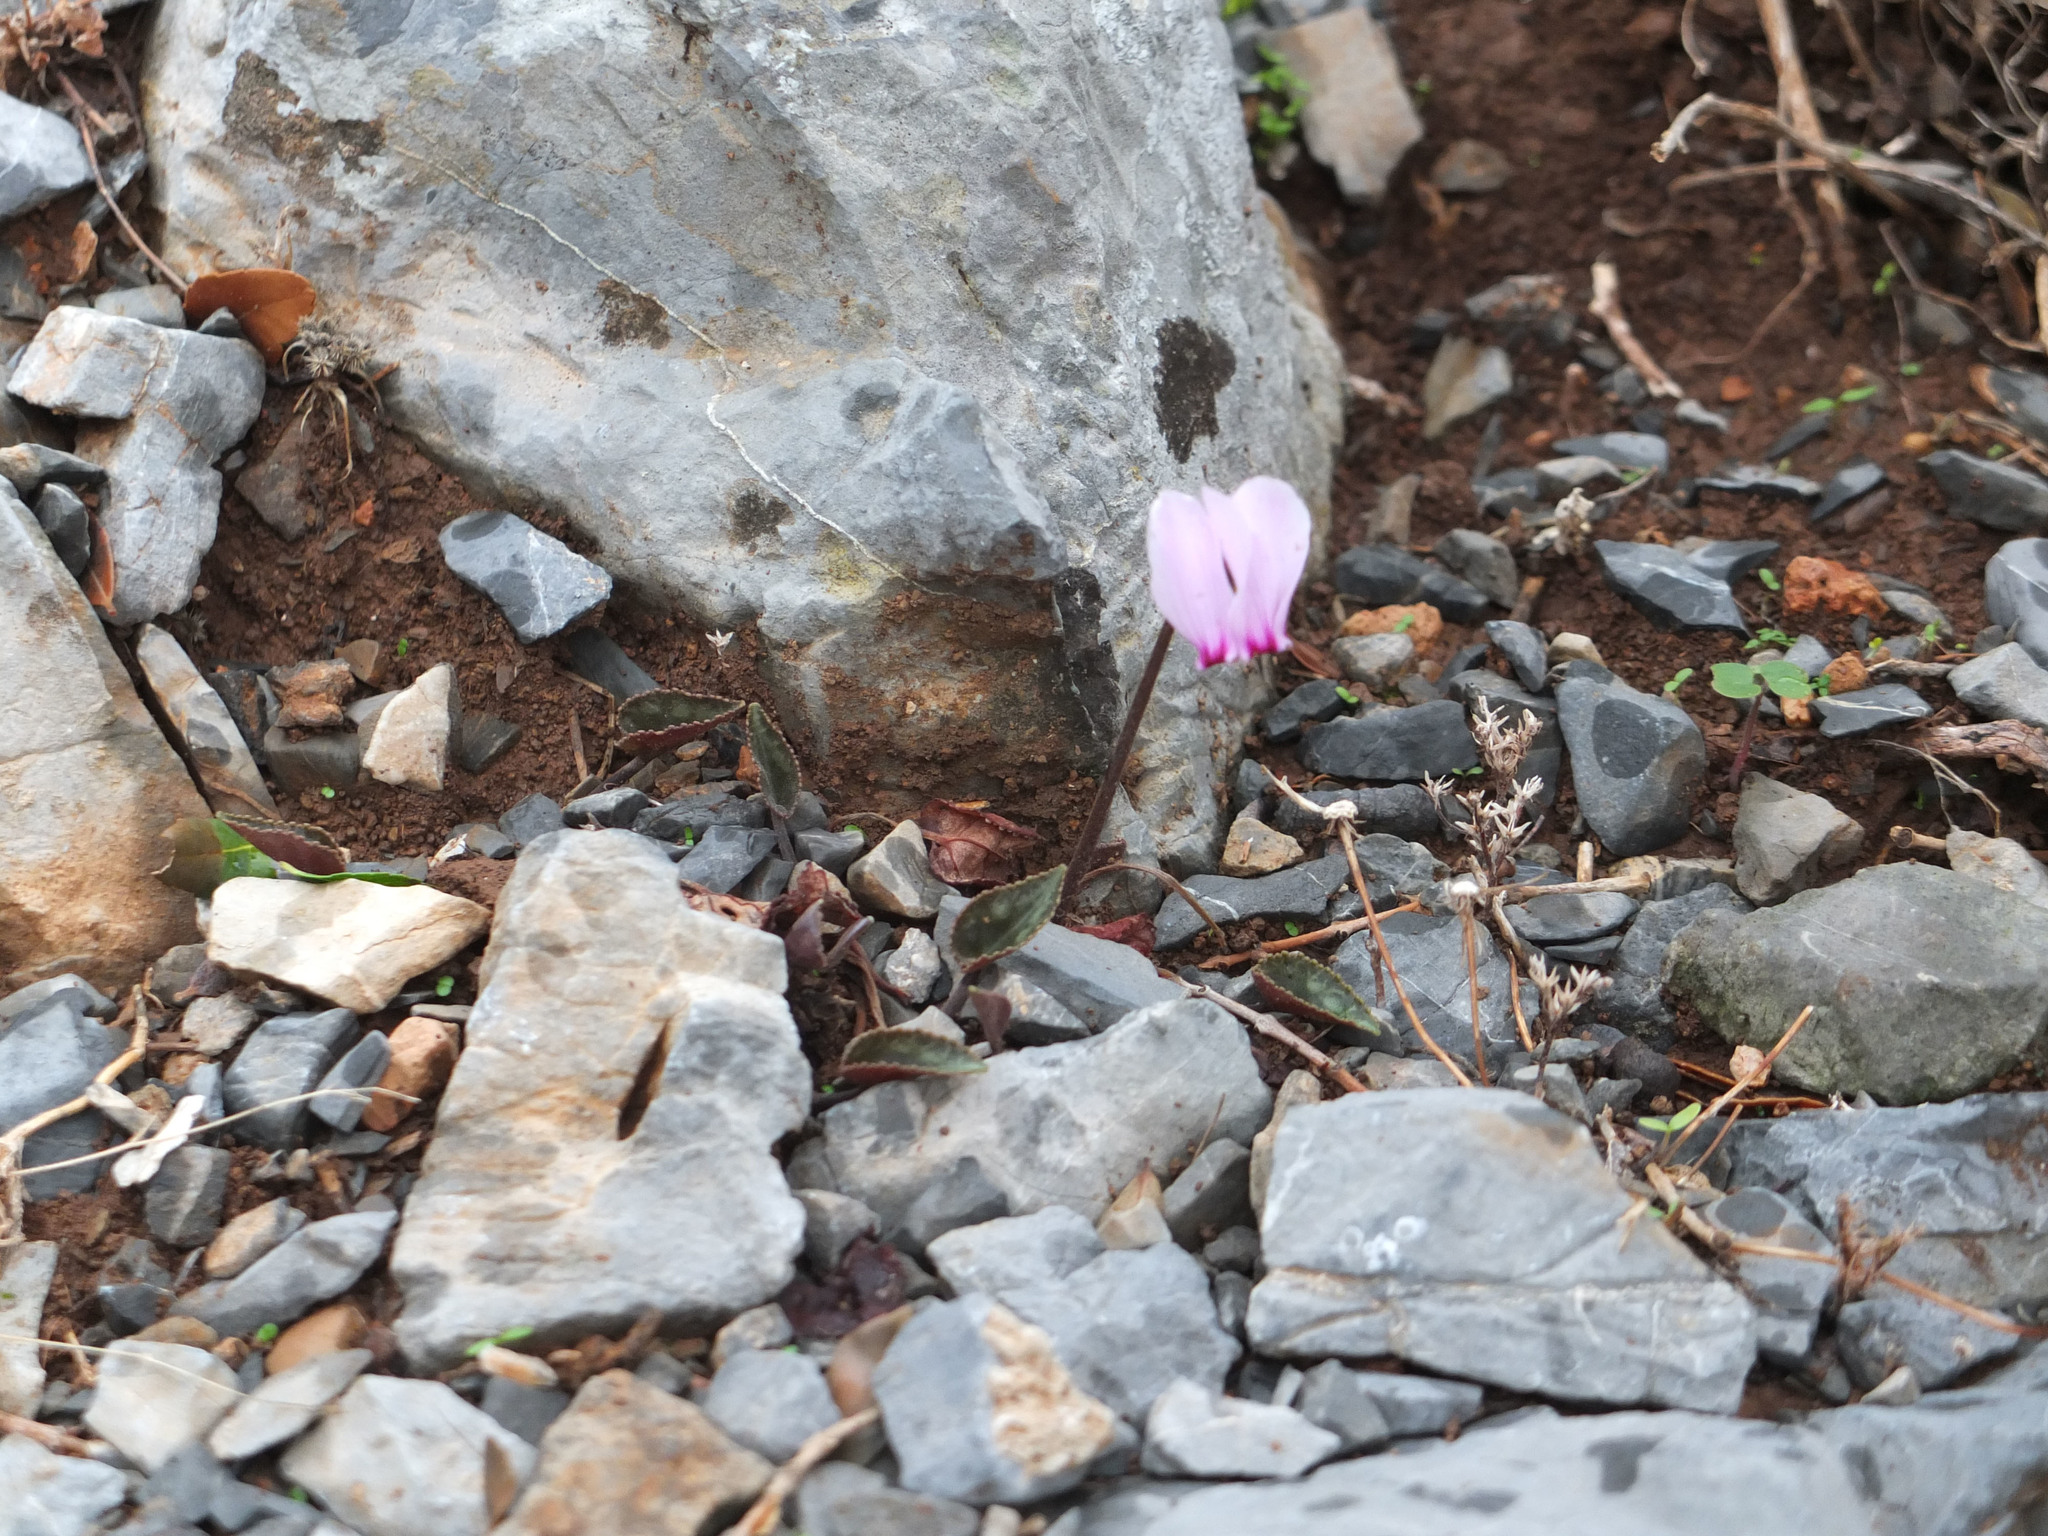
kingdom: Plantae
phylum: Tracheophyta
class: Magnoliopsida
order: Ericales
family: Primulaceae
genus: Cyclamen
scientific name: Cyclamen graecum
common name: Greek cyclamen
